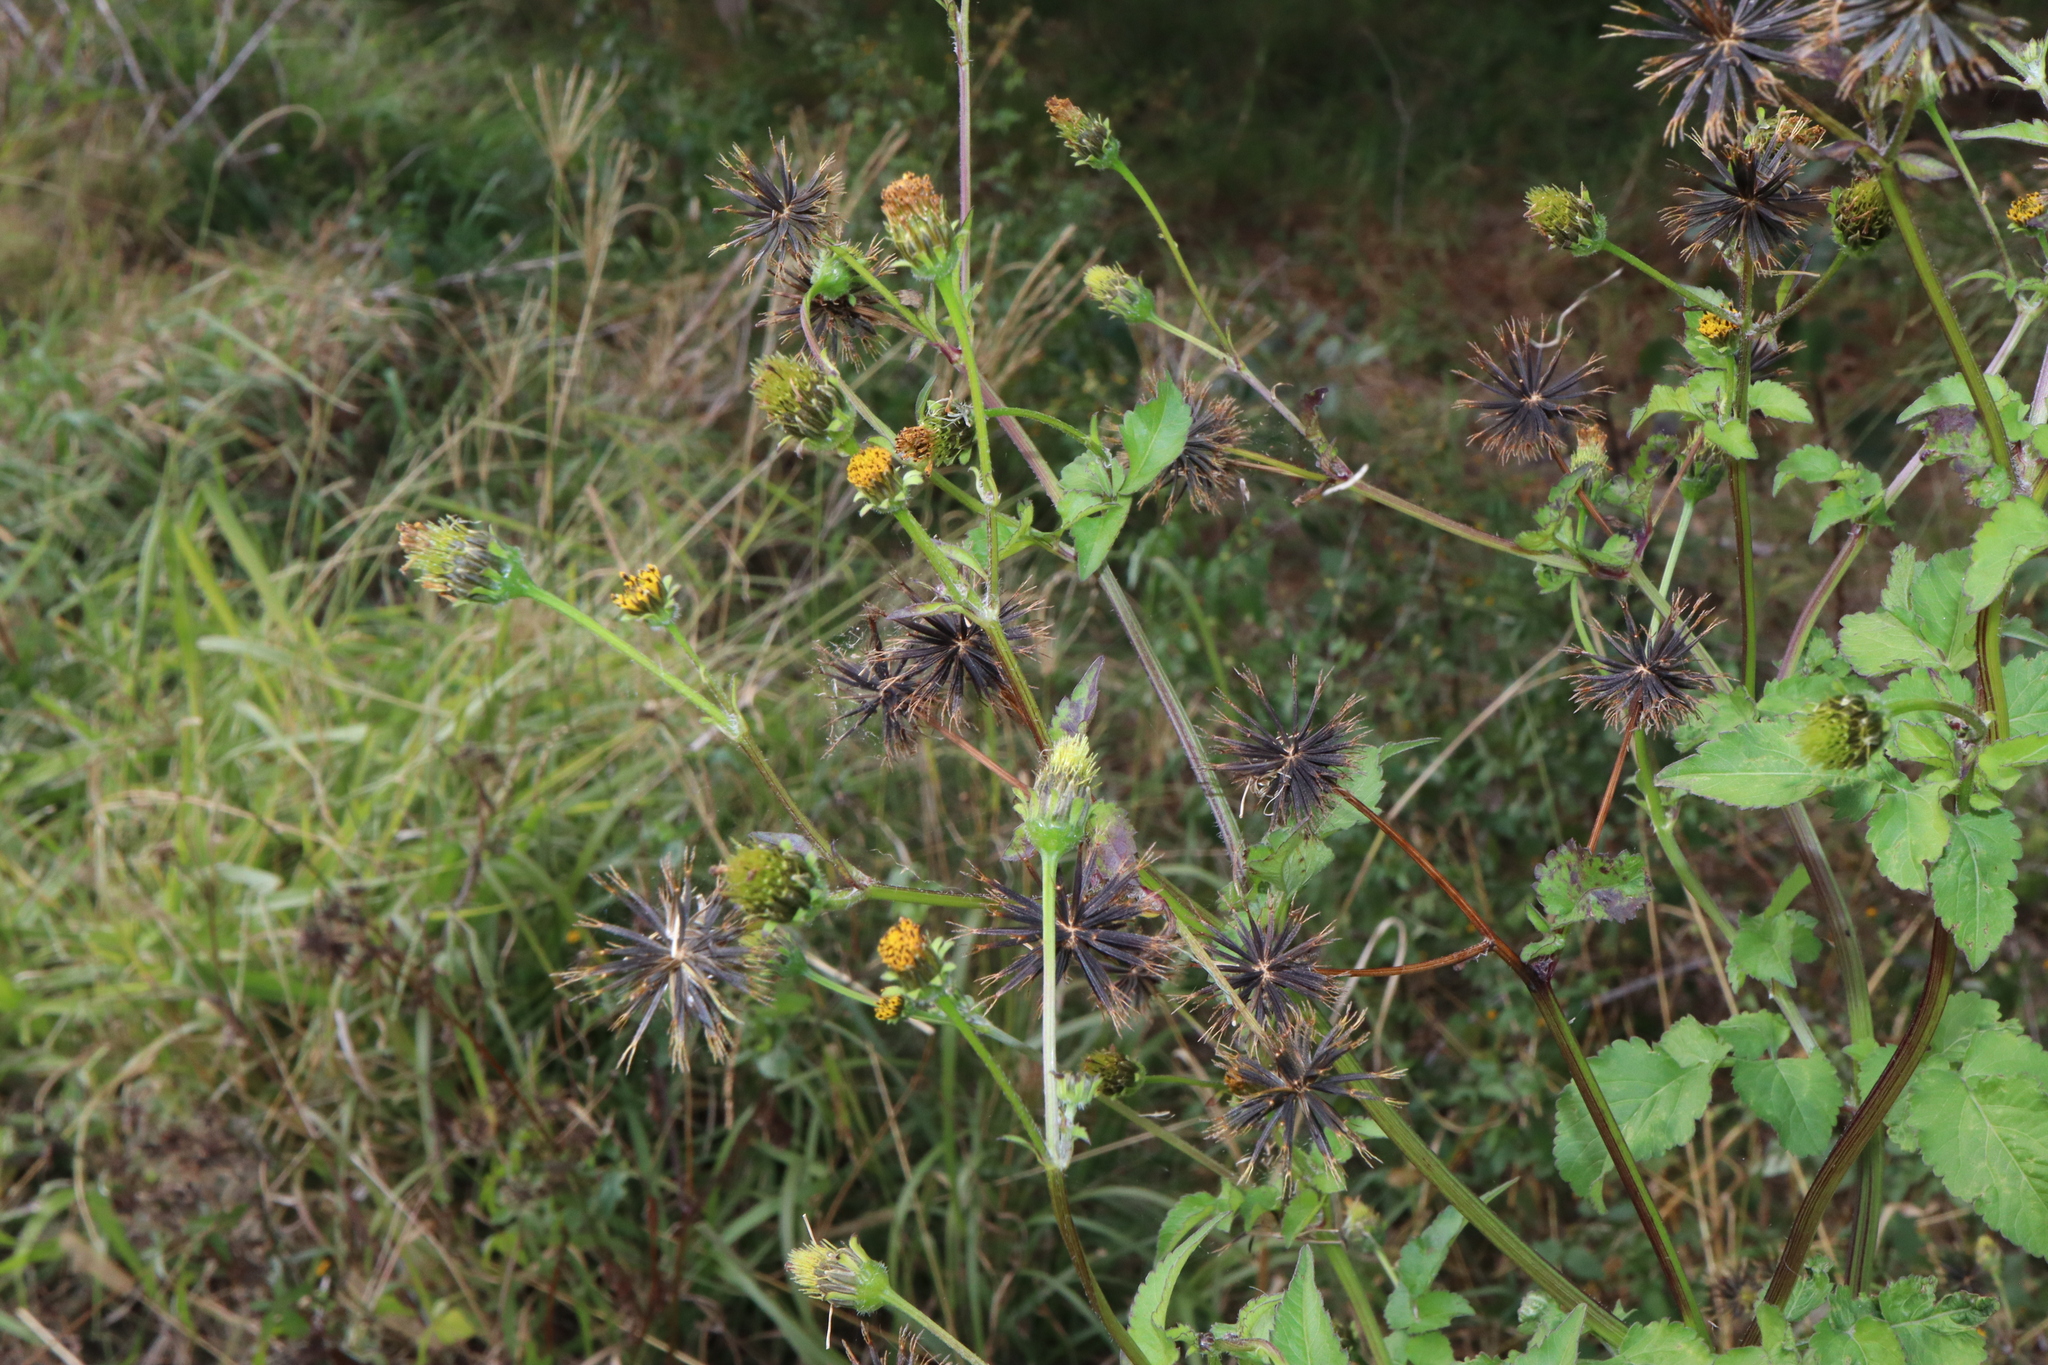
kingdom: Plantae
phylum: Tracheophyta
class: Magnoliopsida
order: Asterales
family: Asteraceae
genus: Bidens
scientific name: Bidens pilosa
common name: Black-jack
